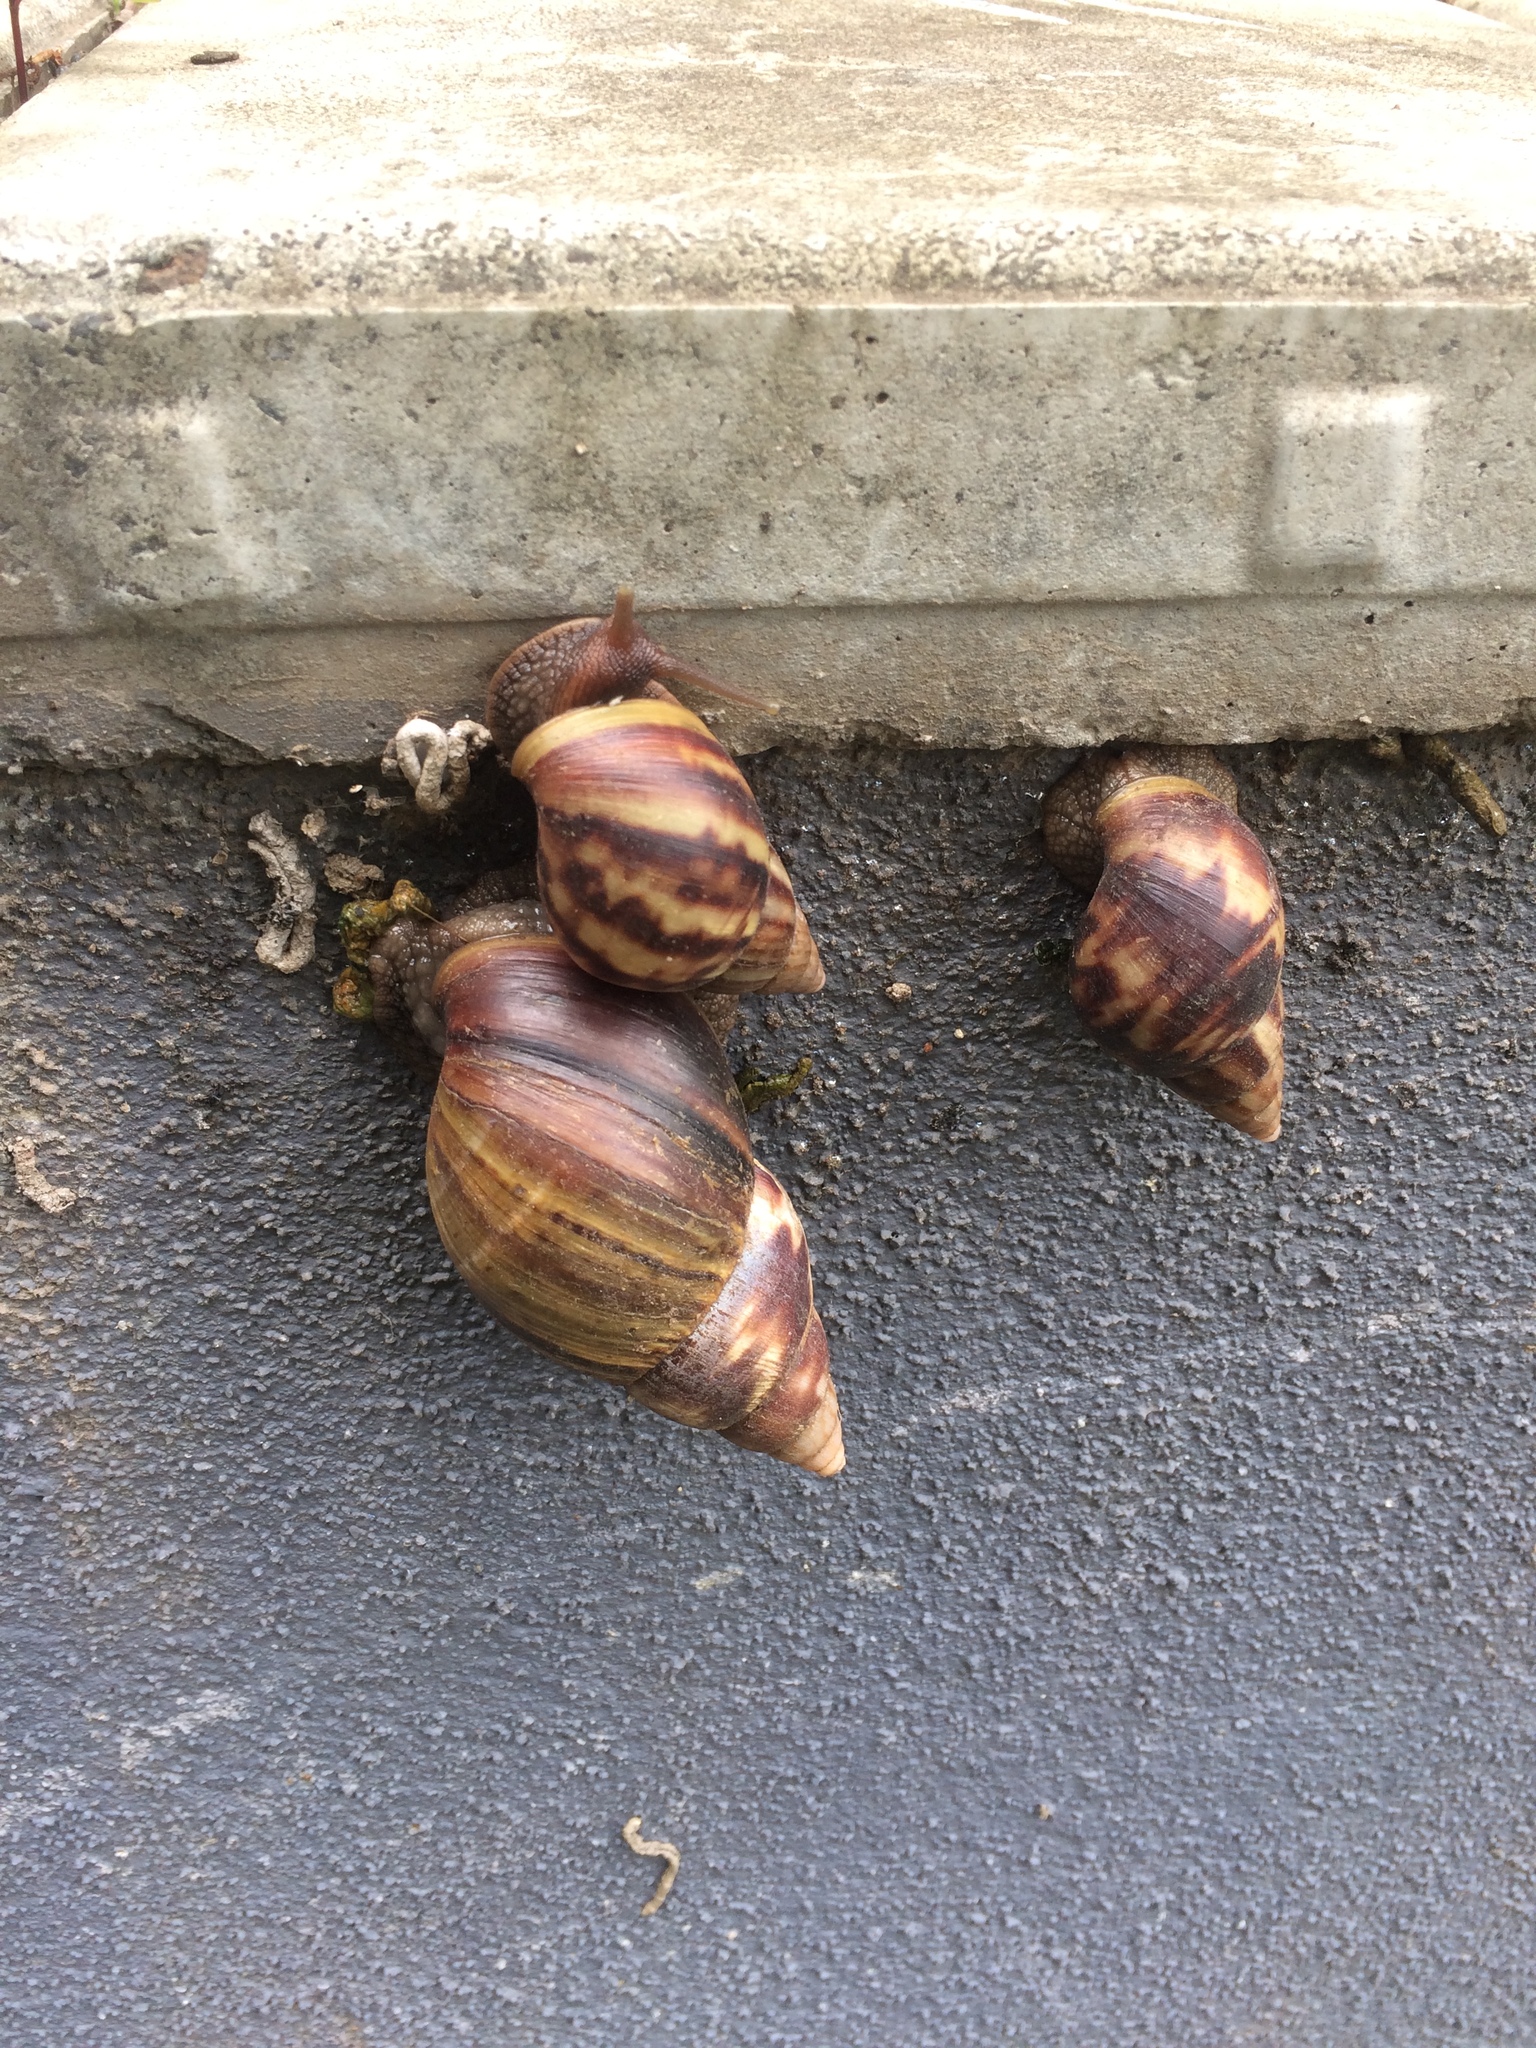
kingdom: Animalia
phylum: Mollusca
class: Gastropoda
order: Stylommatophora
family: Achatinidae
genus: Lissachatina
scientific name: Lissachatina fulica
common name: Giant african snail
